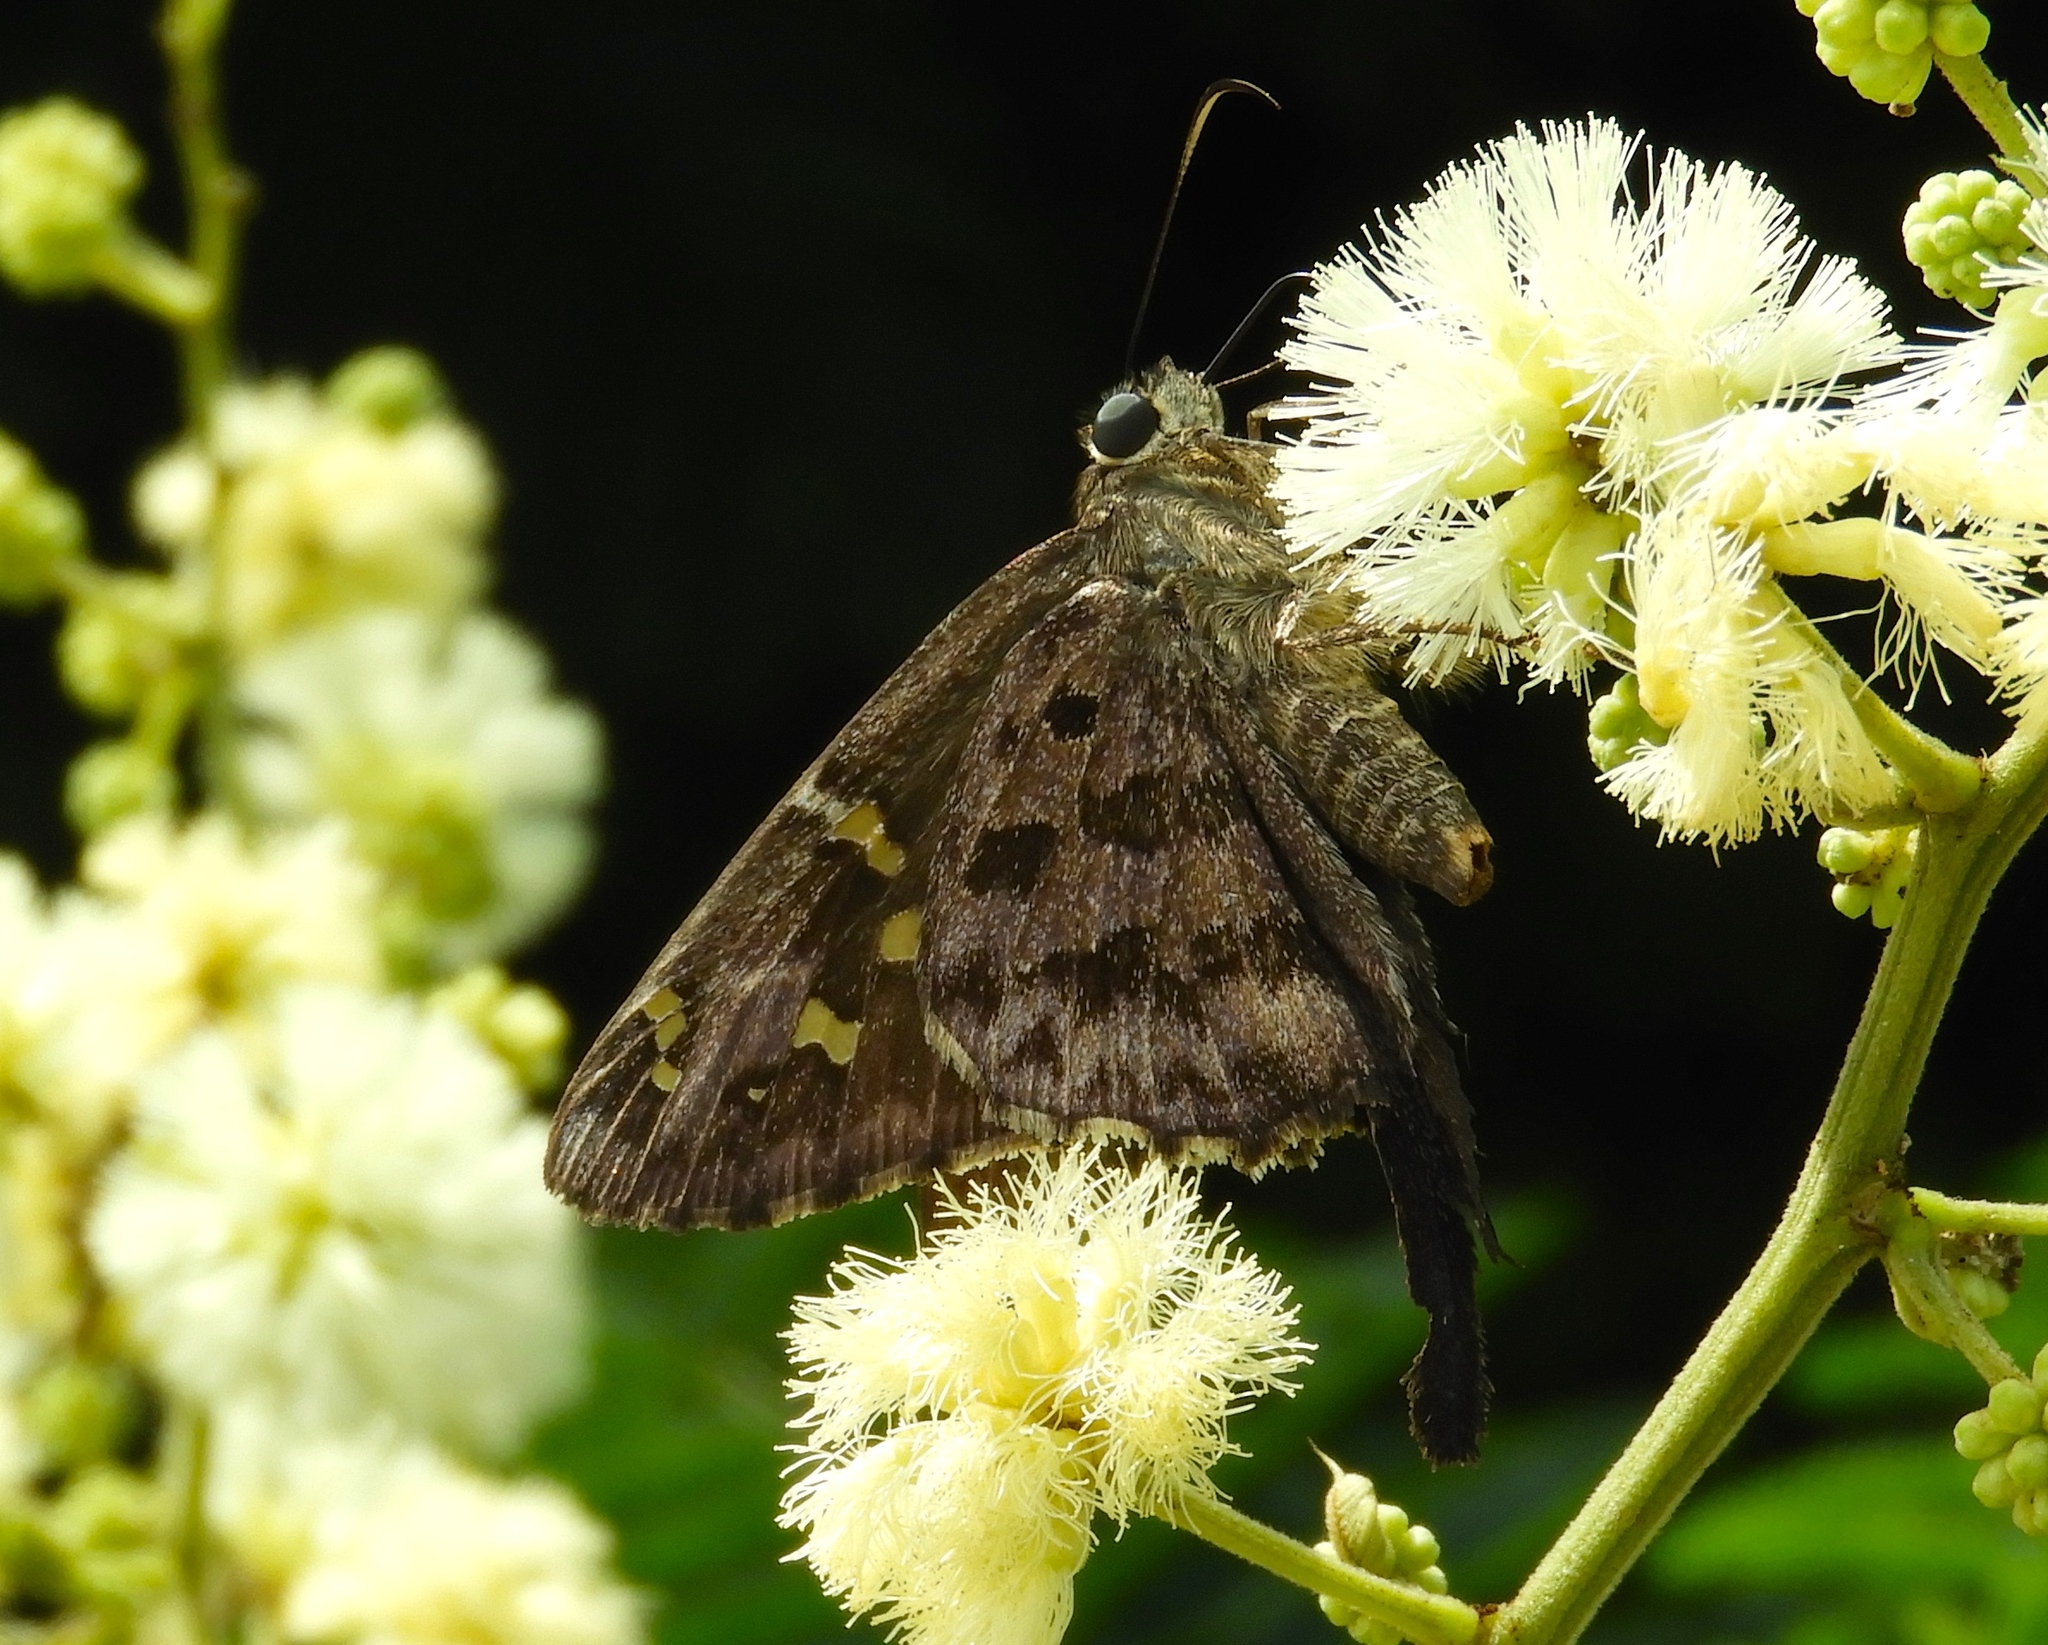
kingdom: Animalia
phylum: Arthropoda
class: Insecta
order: Lepidoptera
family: Hesperiidae
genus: Thorybes
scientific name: Thorybes
